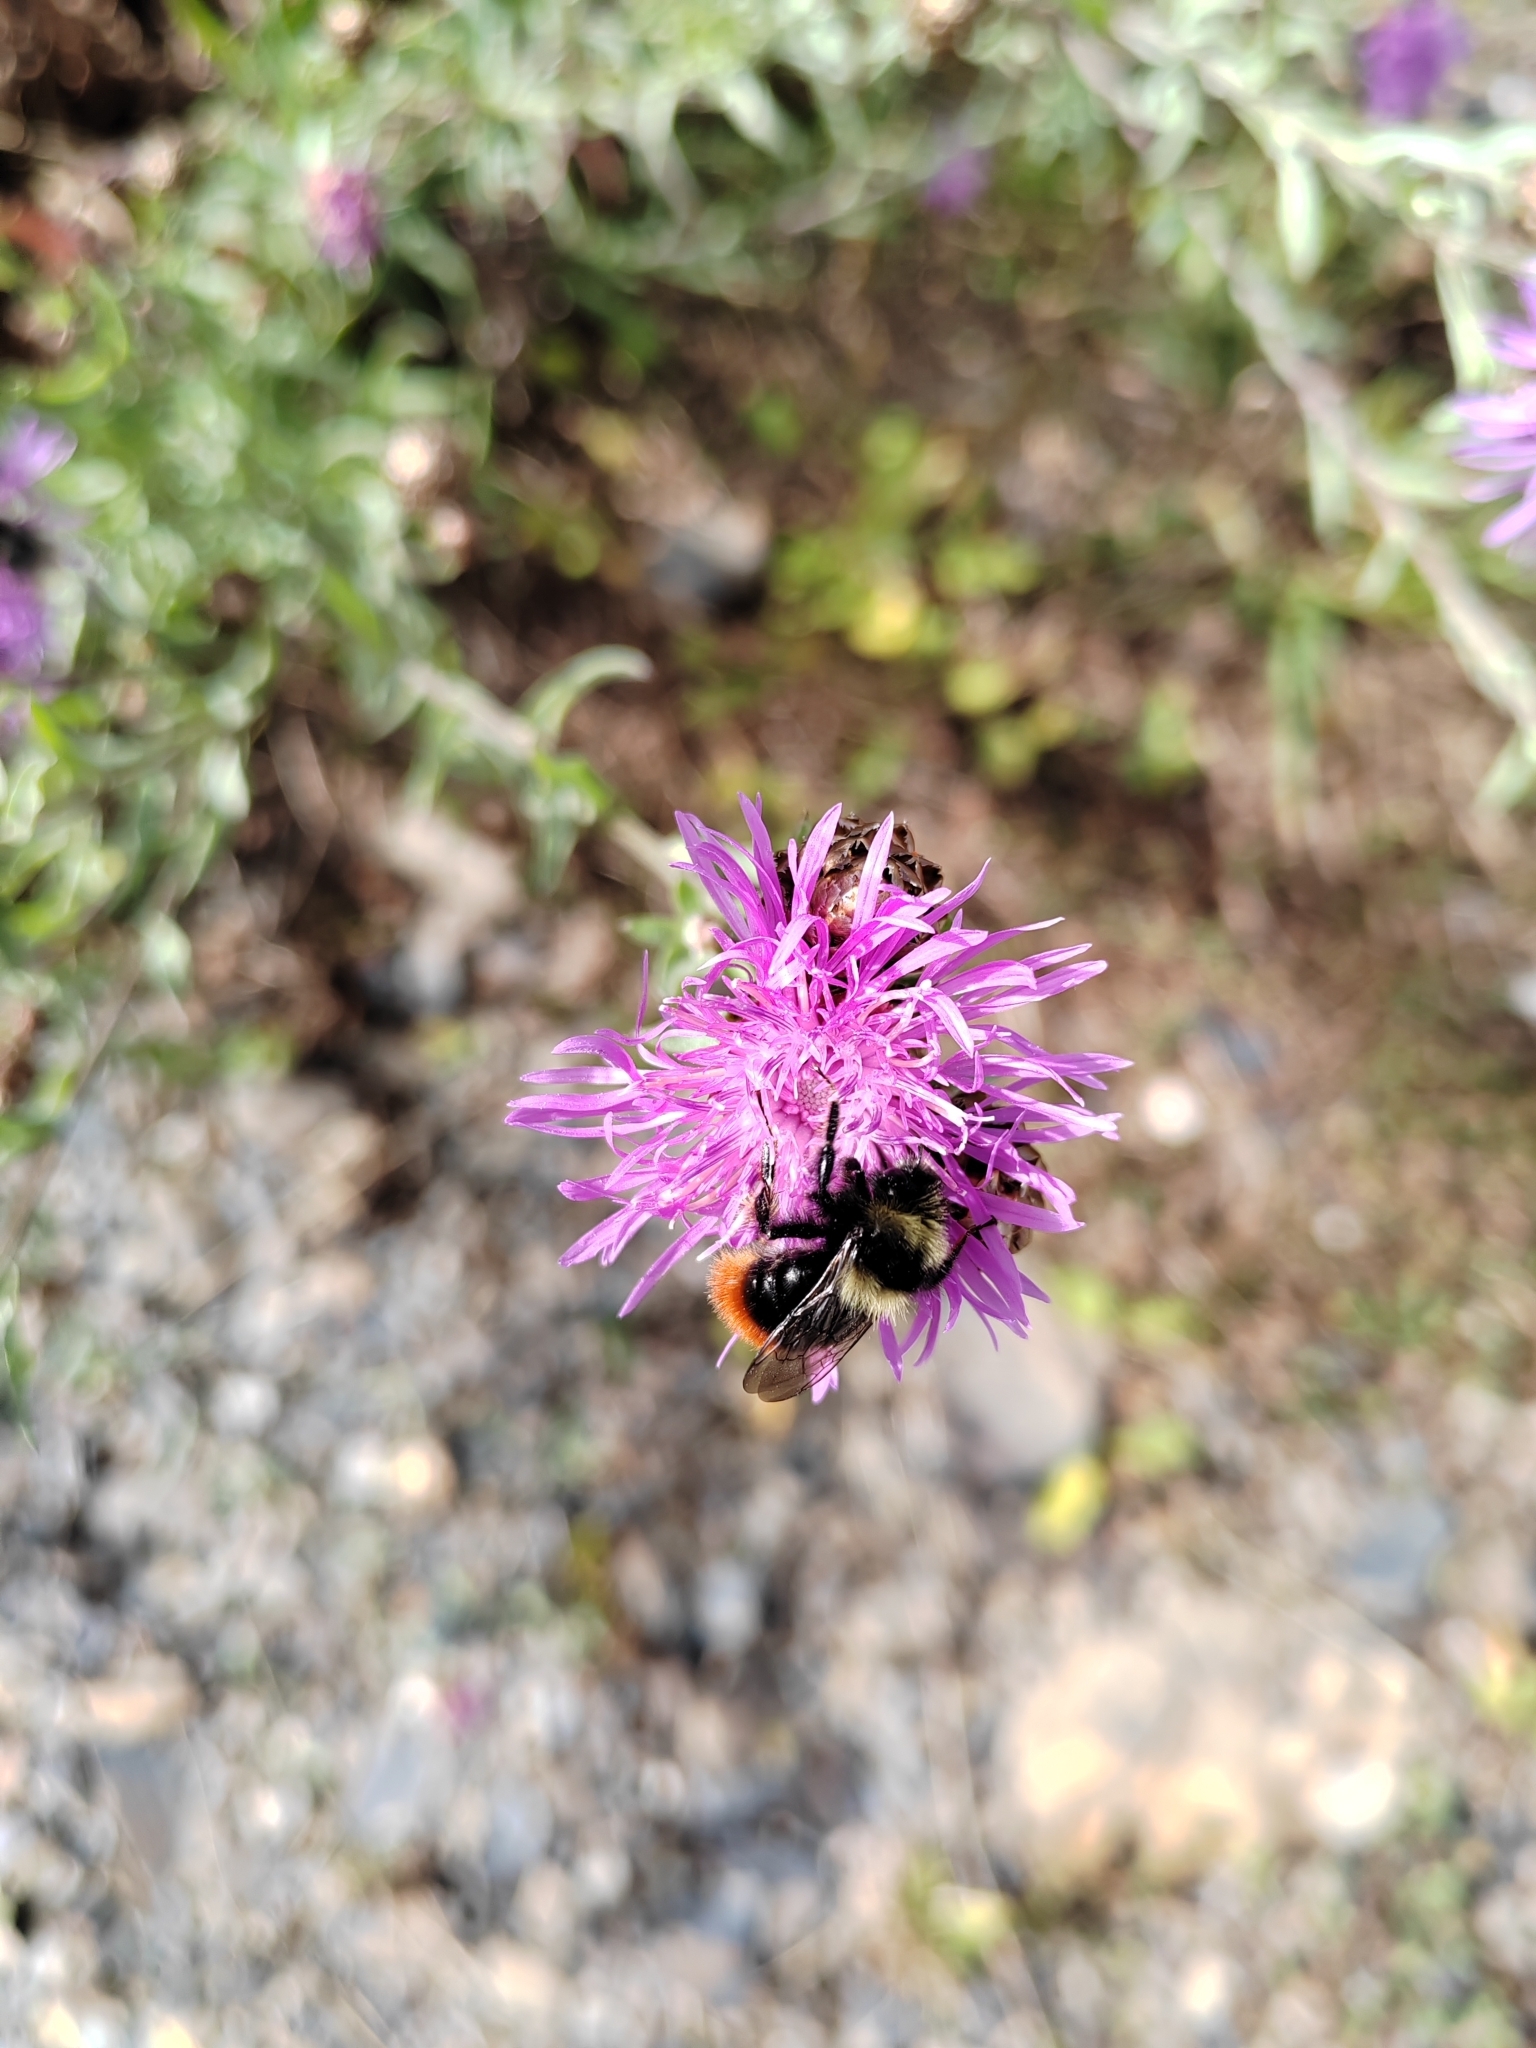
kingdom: Animalia
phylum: Arthropoda
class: Insecta
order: Hymenoptera
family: Apidae
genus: Bombus
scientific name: Bombus lapidarius
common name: Large red-tailed humble-bee
